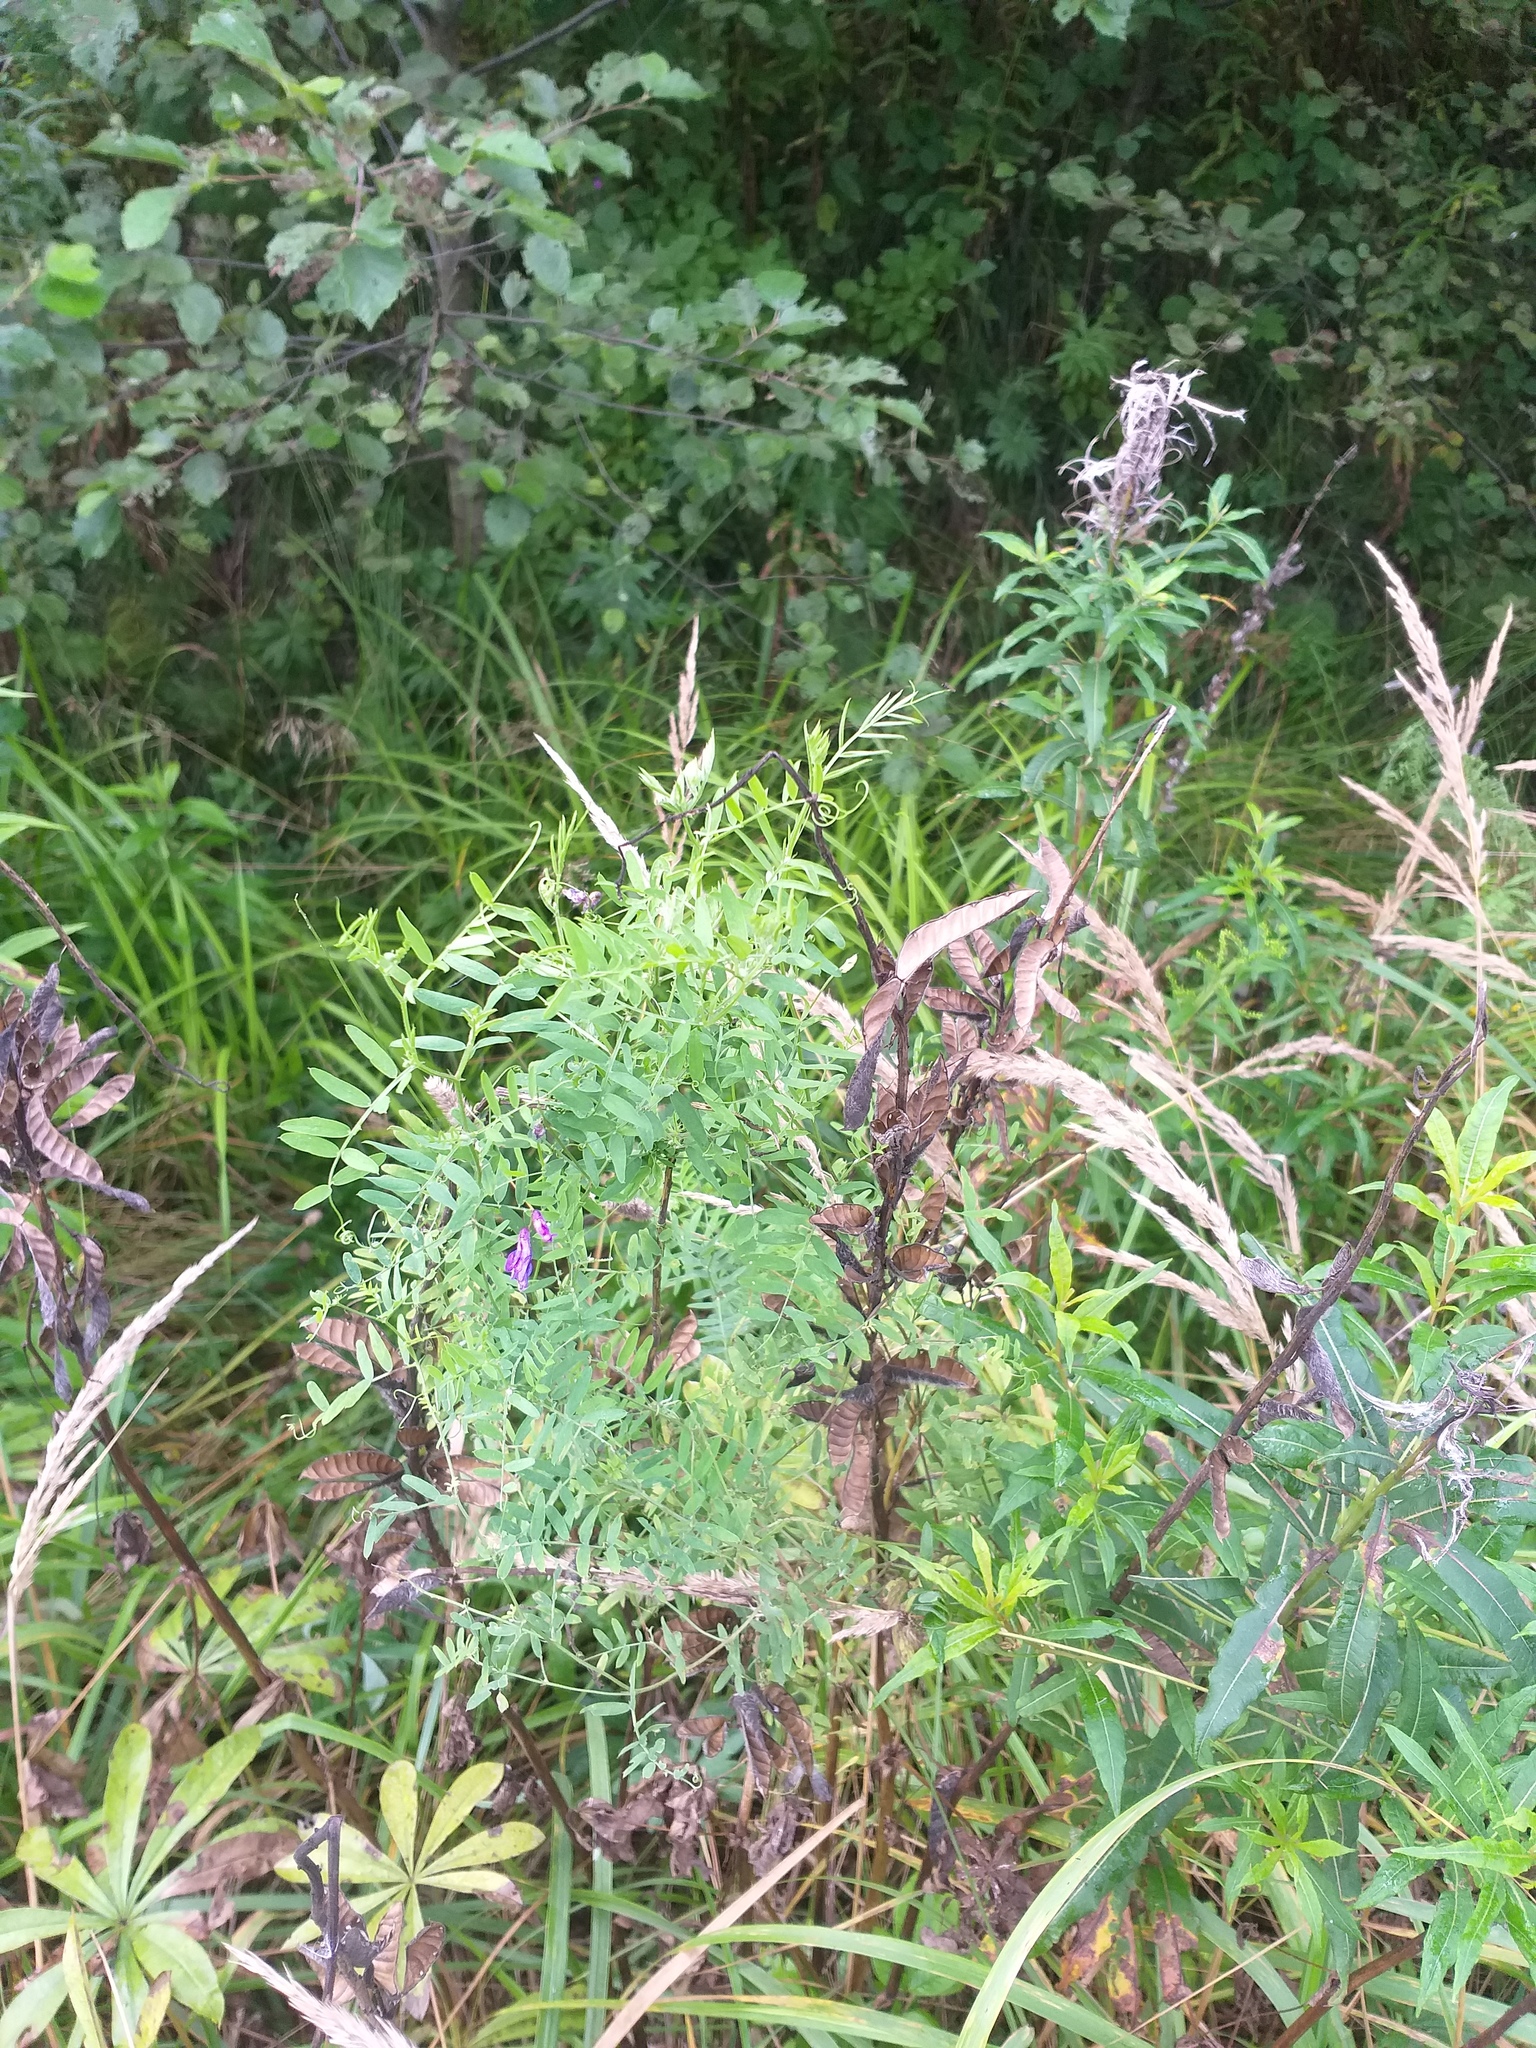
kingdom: Plantae
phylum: Tracheophyta
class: Magnoliopsida
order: Fabales
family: Fabaceae
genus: Vicia
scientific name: Vicia cracca
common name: Bird vetch
